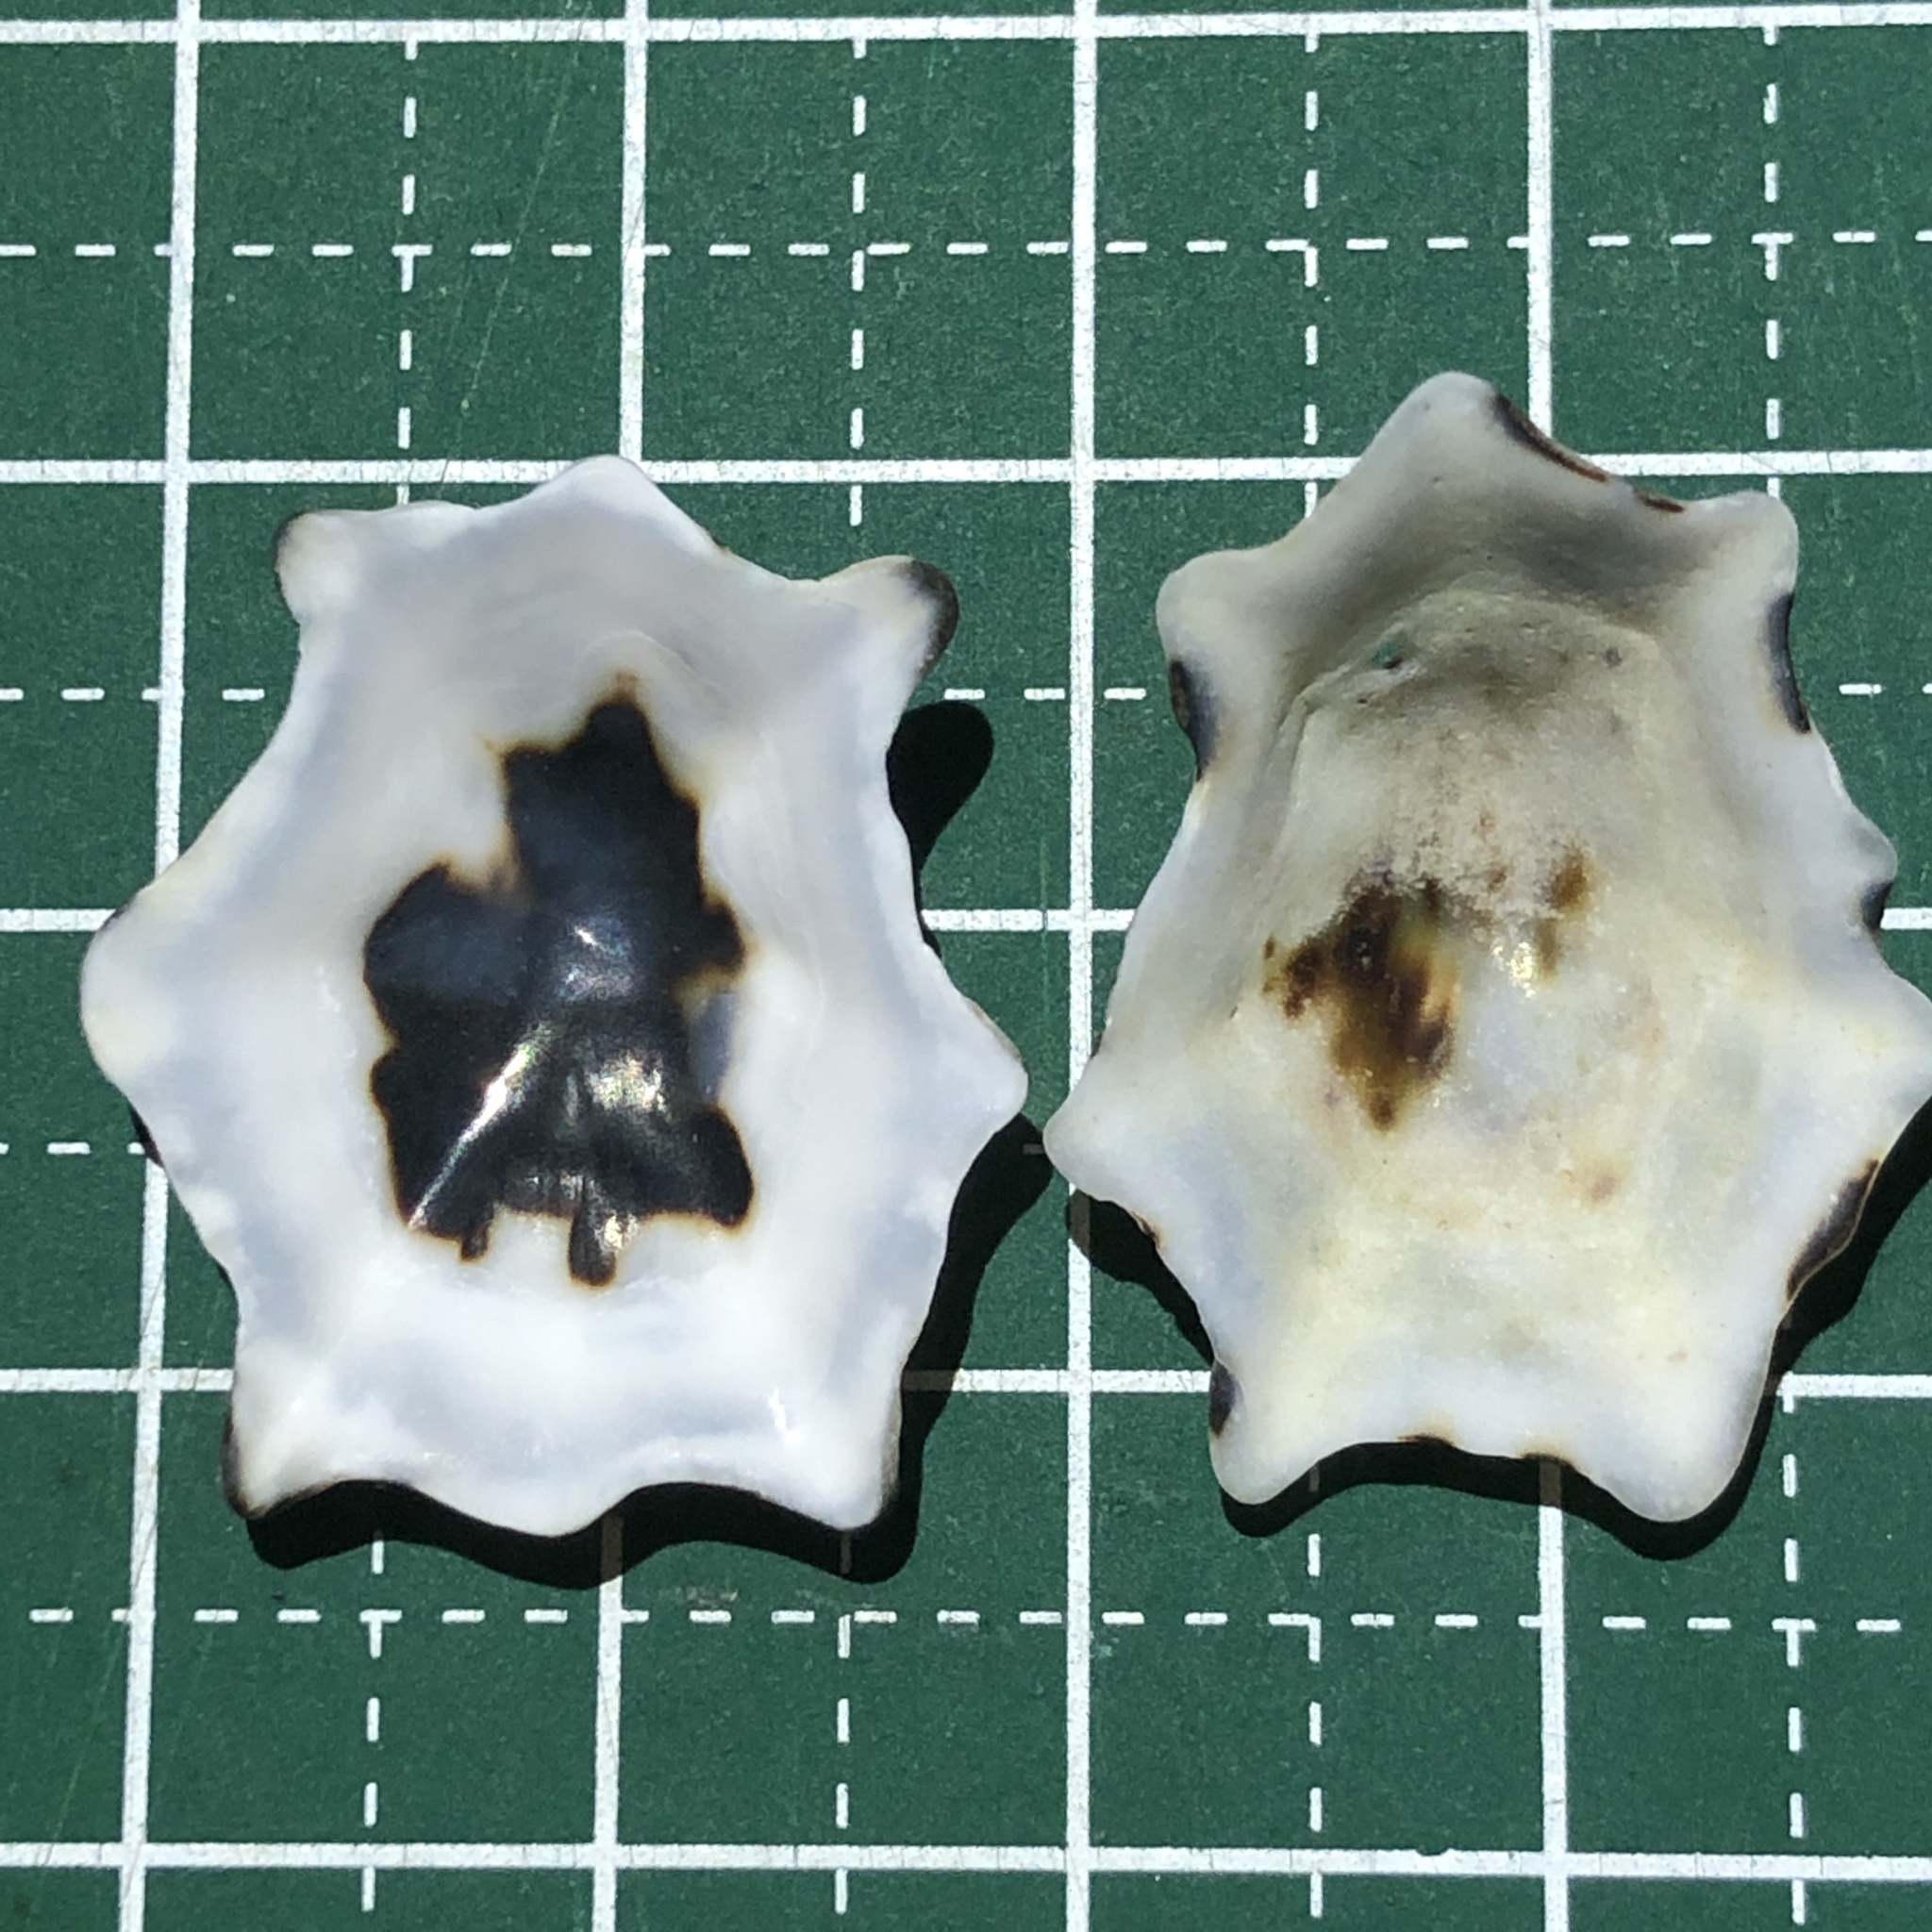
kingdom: Animalia
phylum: Mollusca
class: Gastropoda
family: Lottiidae
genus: Patelloida
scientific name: Patelloida saccharina
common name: Pacific sugar limpet
